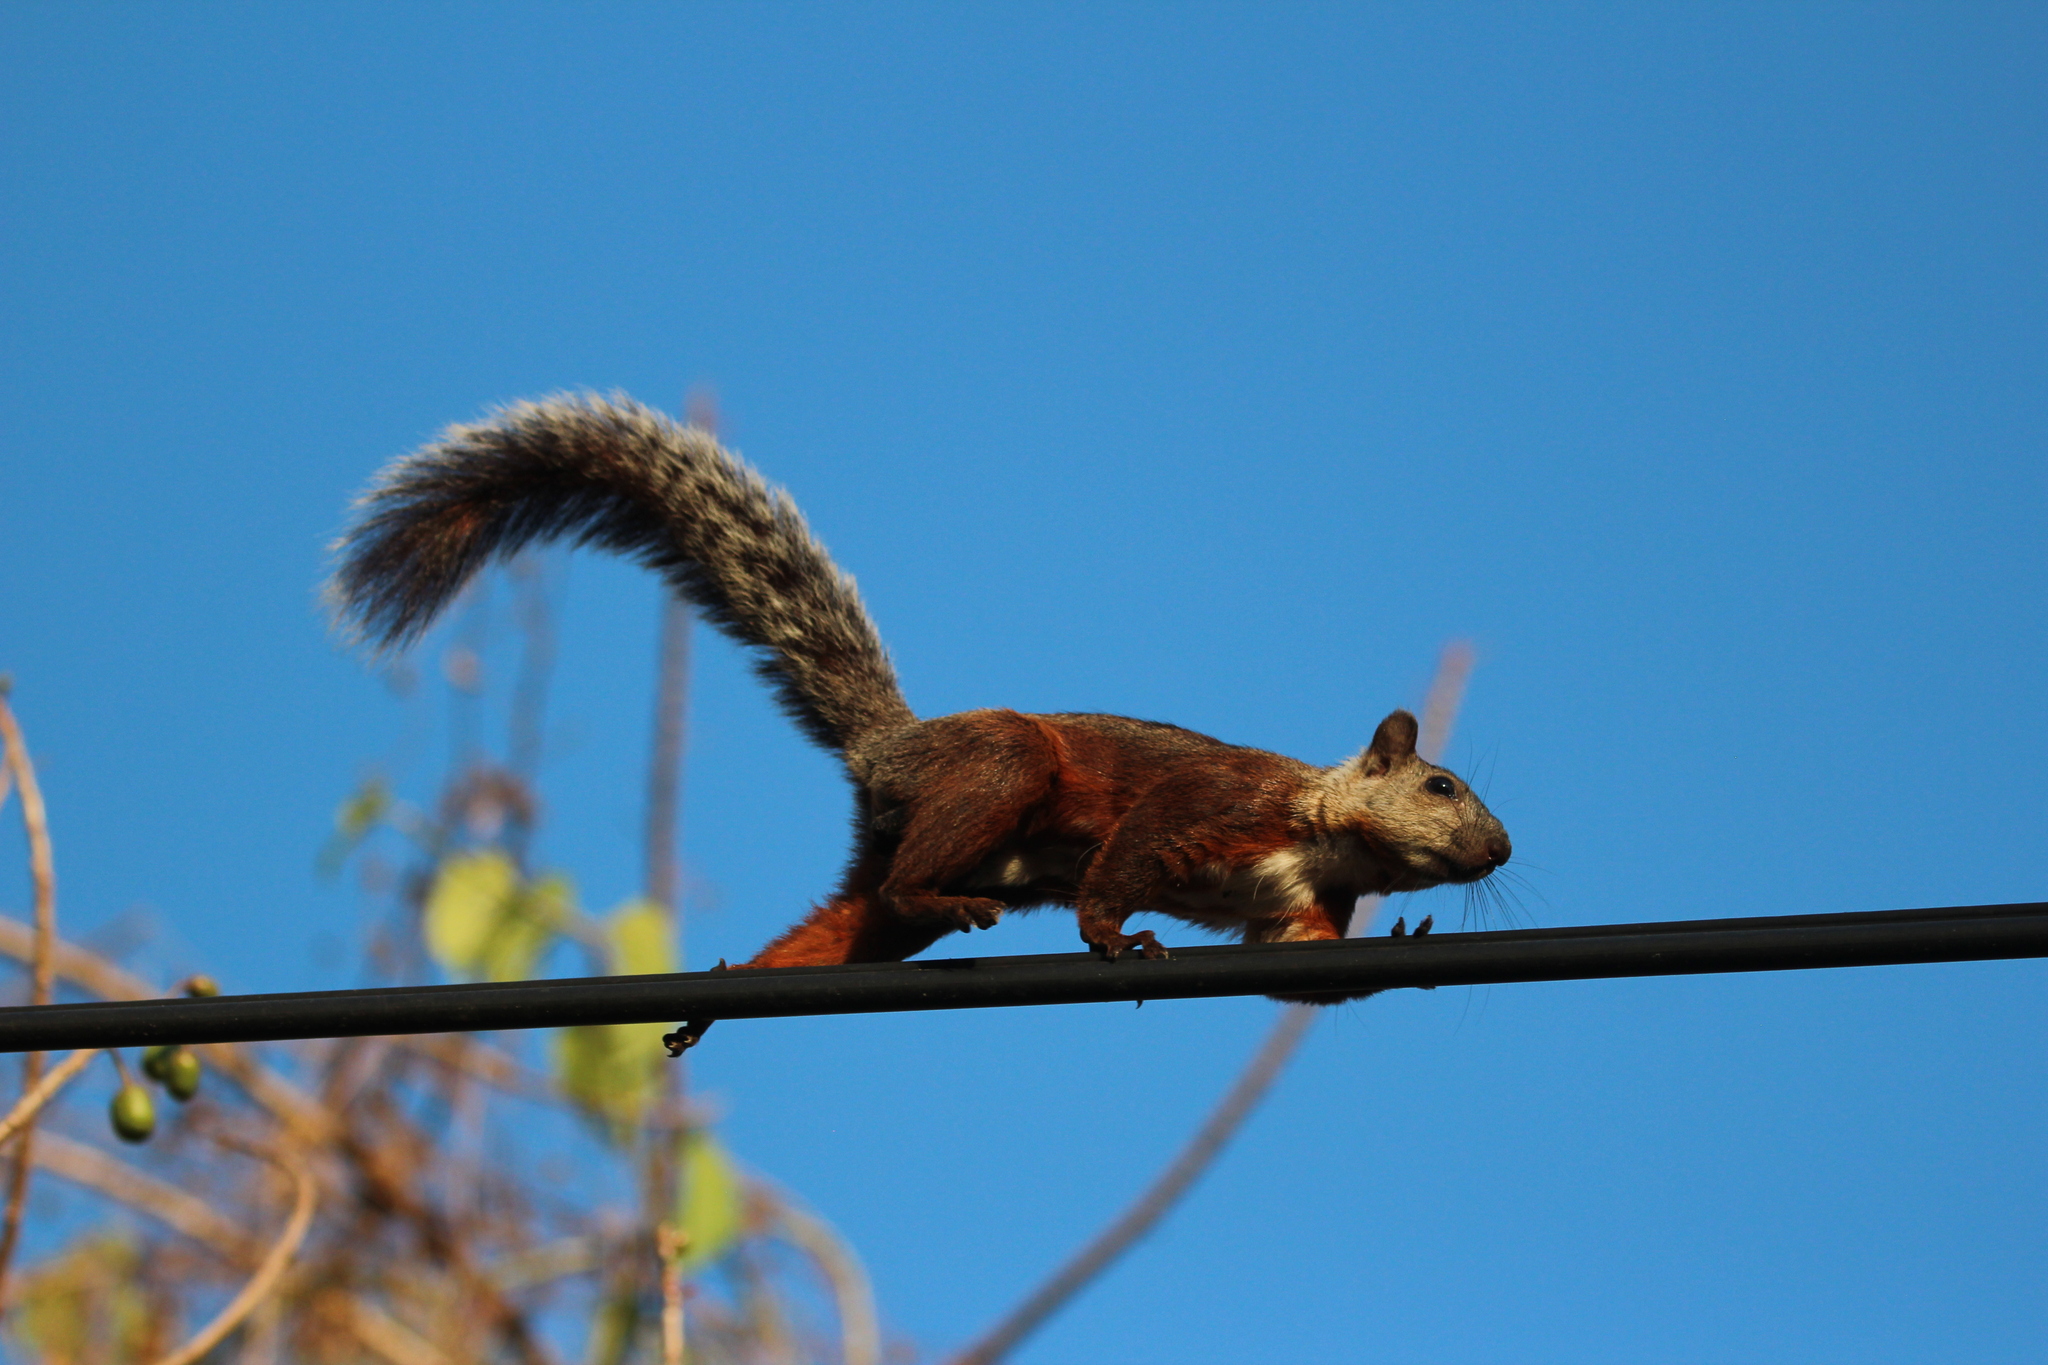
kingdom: Animalia
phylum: Chordata
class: Mammalia
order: Rodentia
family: Sciuridae
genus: Sciurus
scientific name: Sciurus variegatoides
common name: Variegated squirrel
